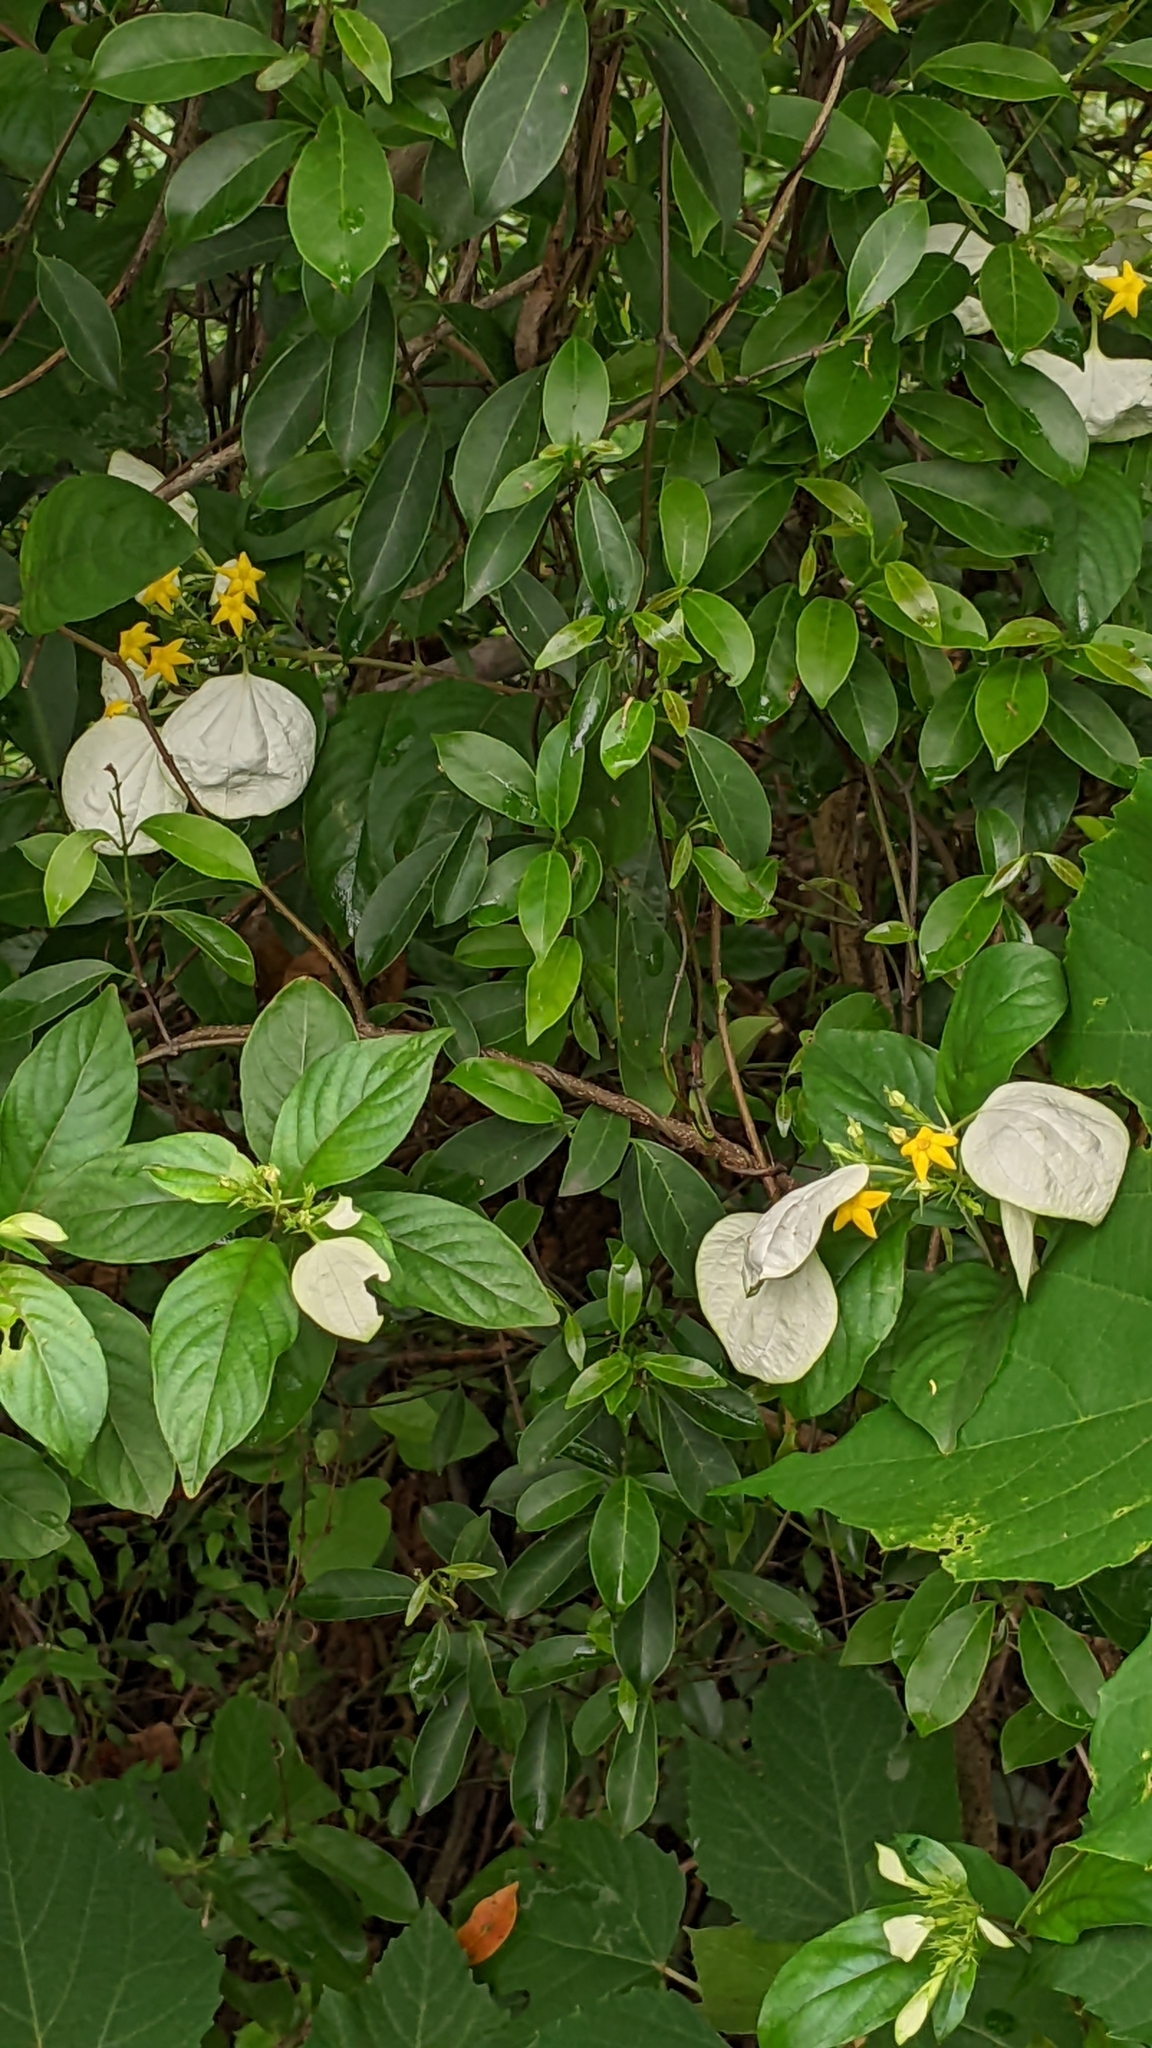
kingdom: Plantae
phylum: Tracheophyta
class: Magnoliopsida
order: Gentianales
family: Rubiaceae
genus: Mussaenda
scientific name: Mussaenda formosana
